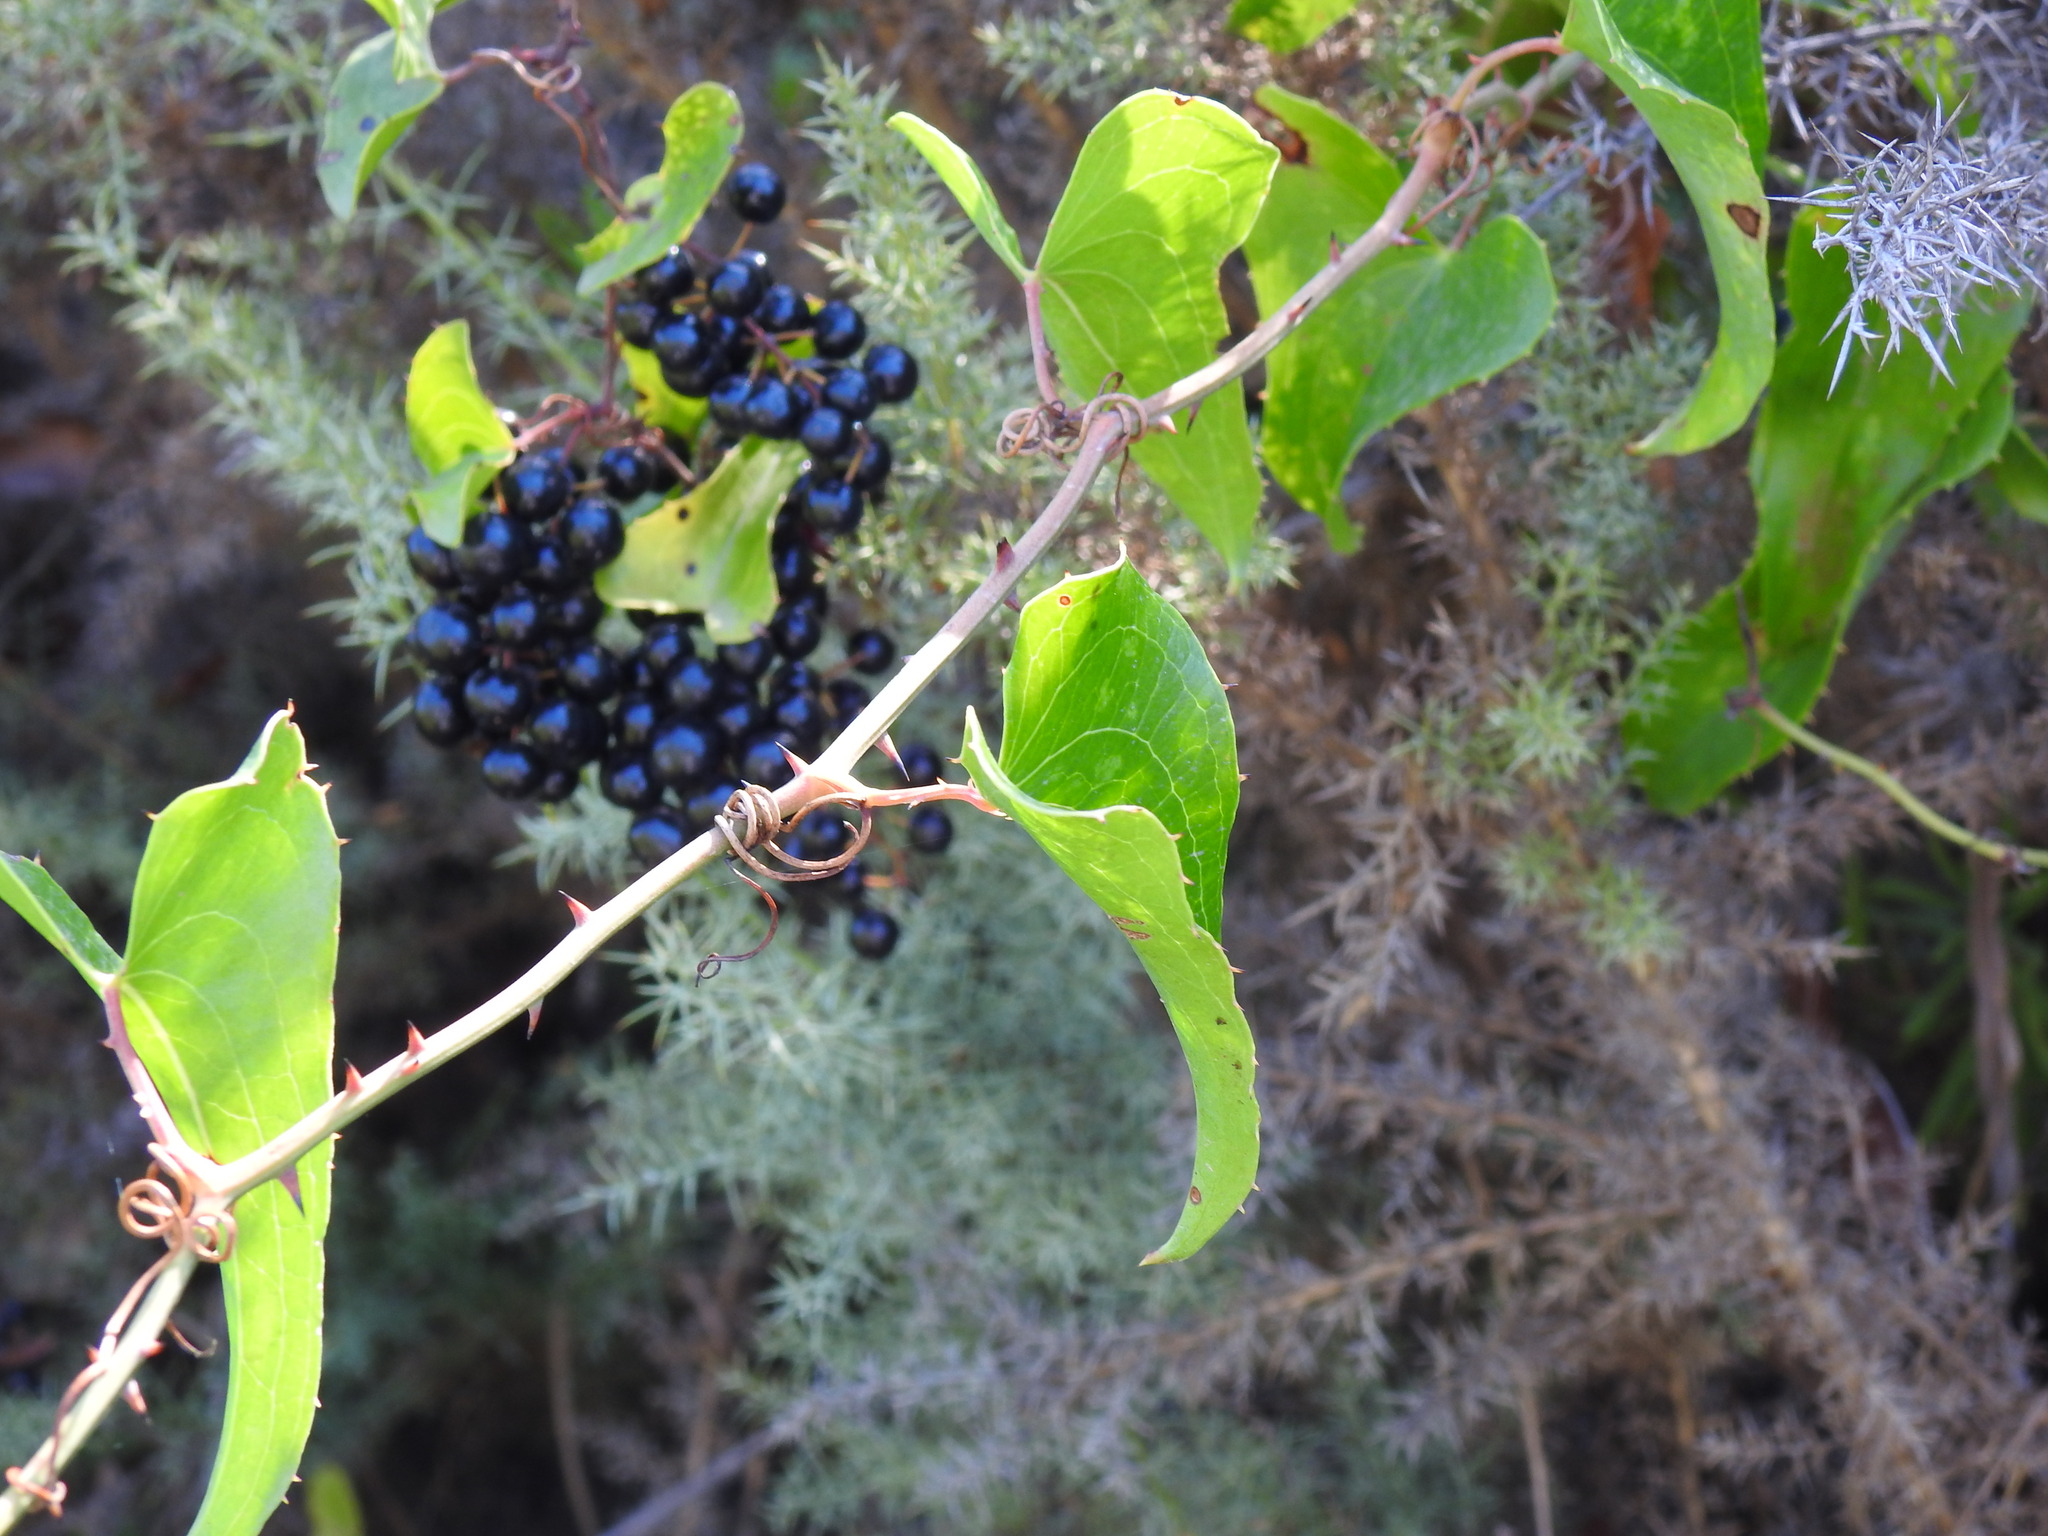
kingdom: Plantae
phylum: Tracheophyta
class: Liliopsida
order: Liliales
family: Smilacaceae
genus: Smilax
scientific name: Smilax aspera
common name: Common smilax
